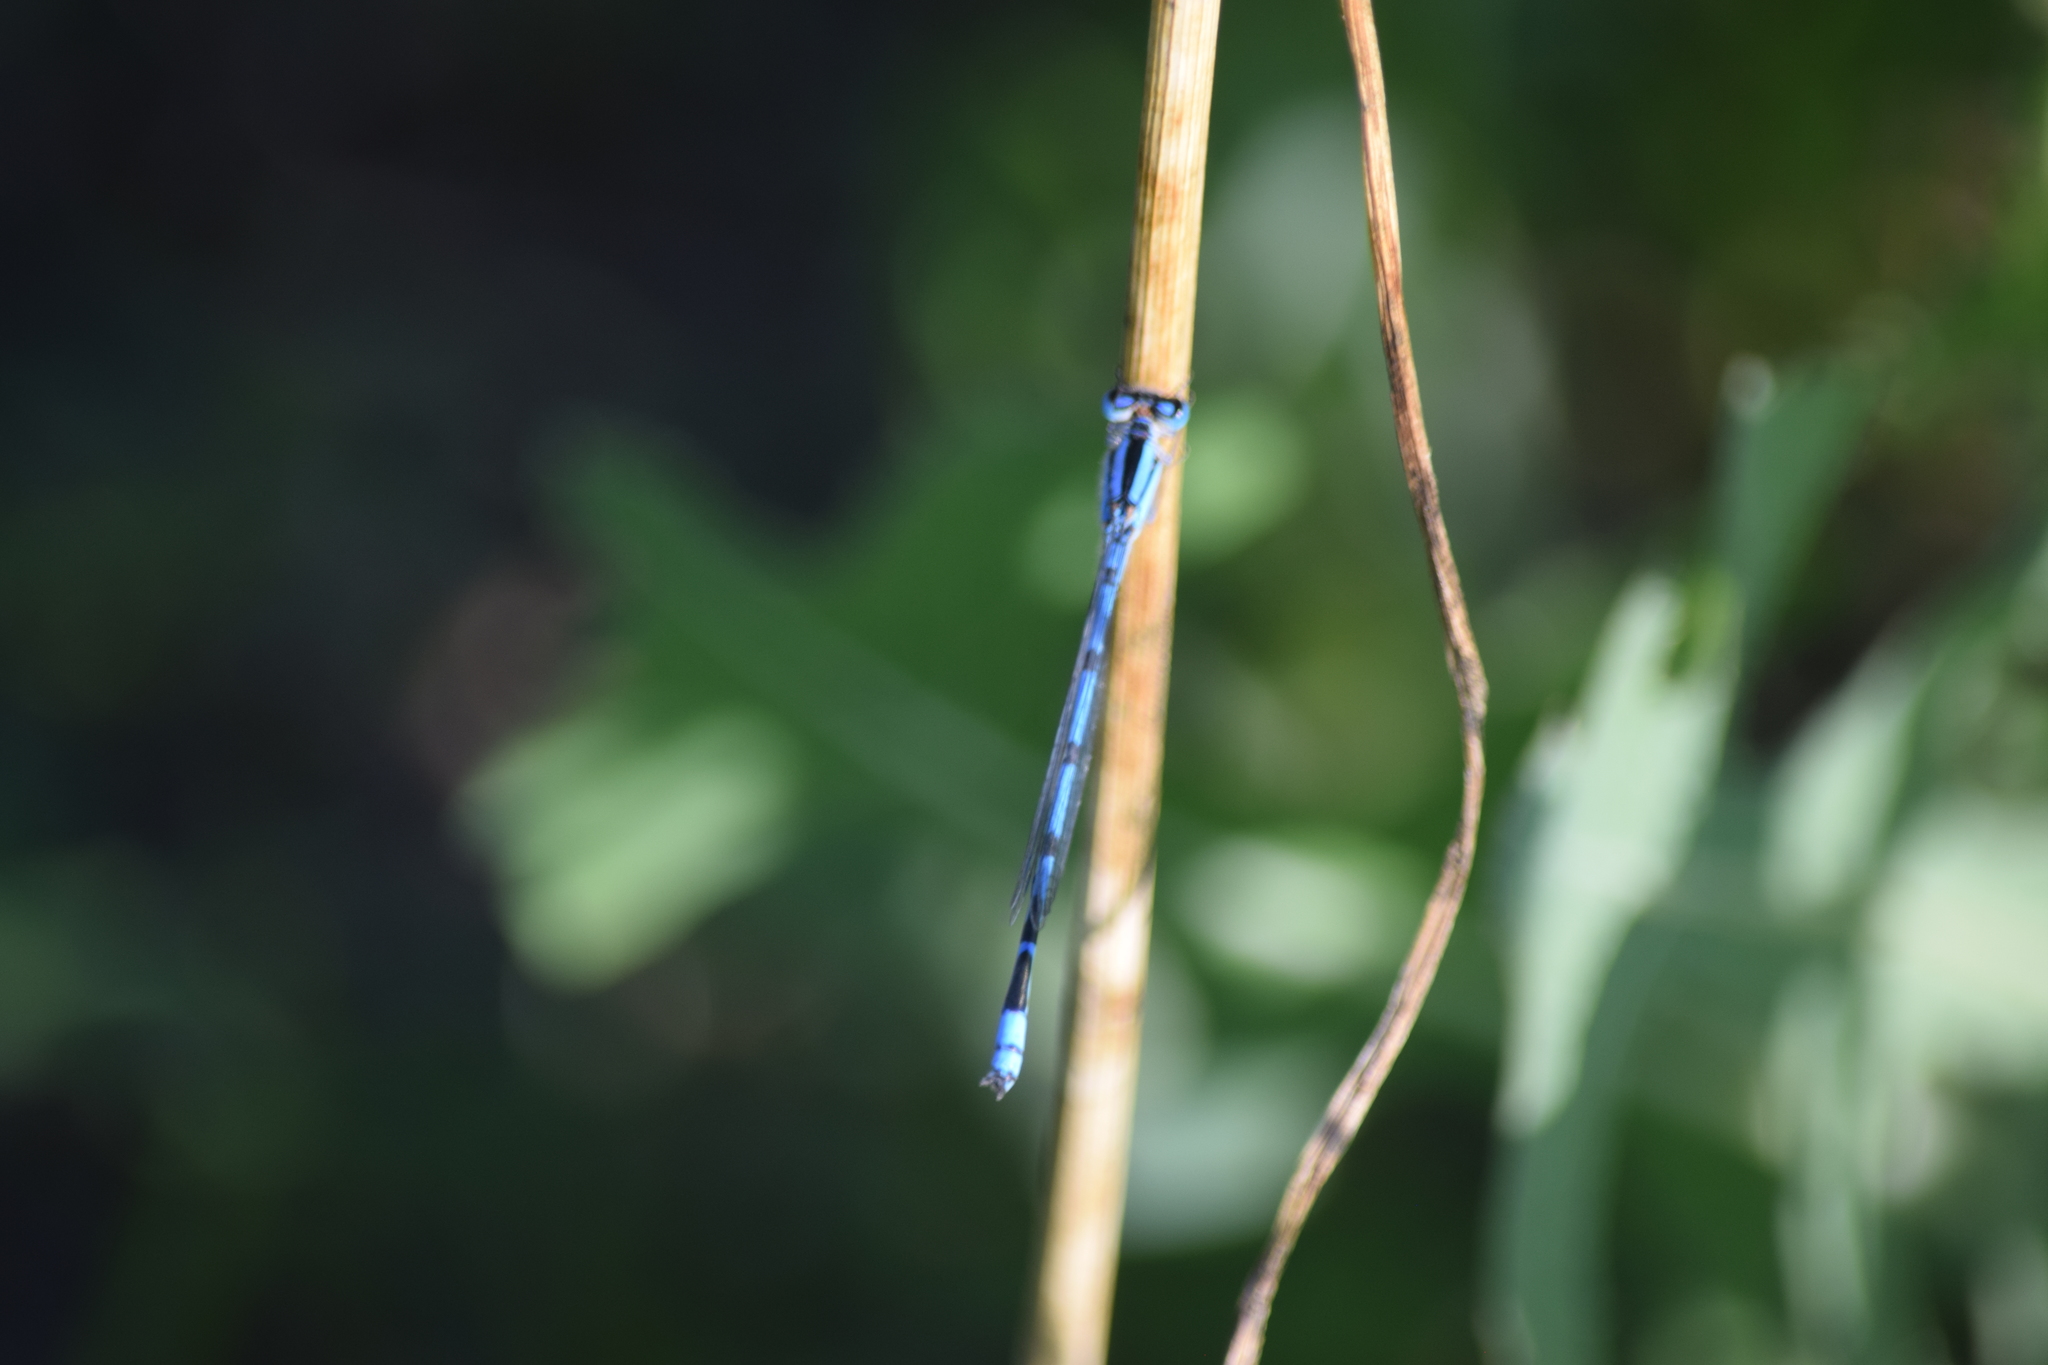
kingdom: Animalia
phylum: Arthropoda
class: Insecta
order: Odonata
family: Coenagrionidae
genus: Enallagma
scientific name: Enallagma civile
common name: Damselfly
